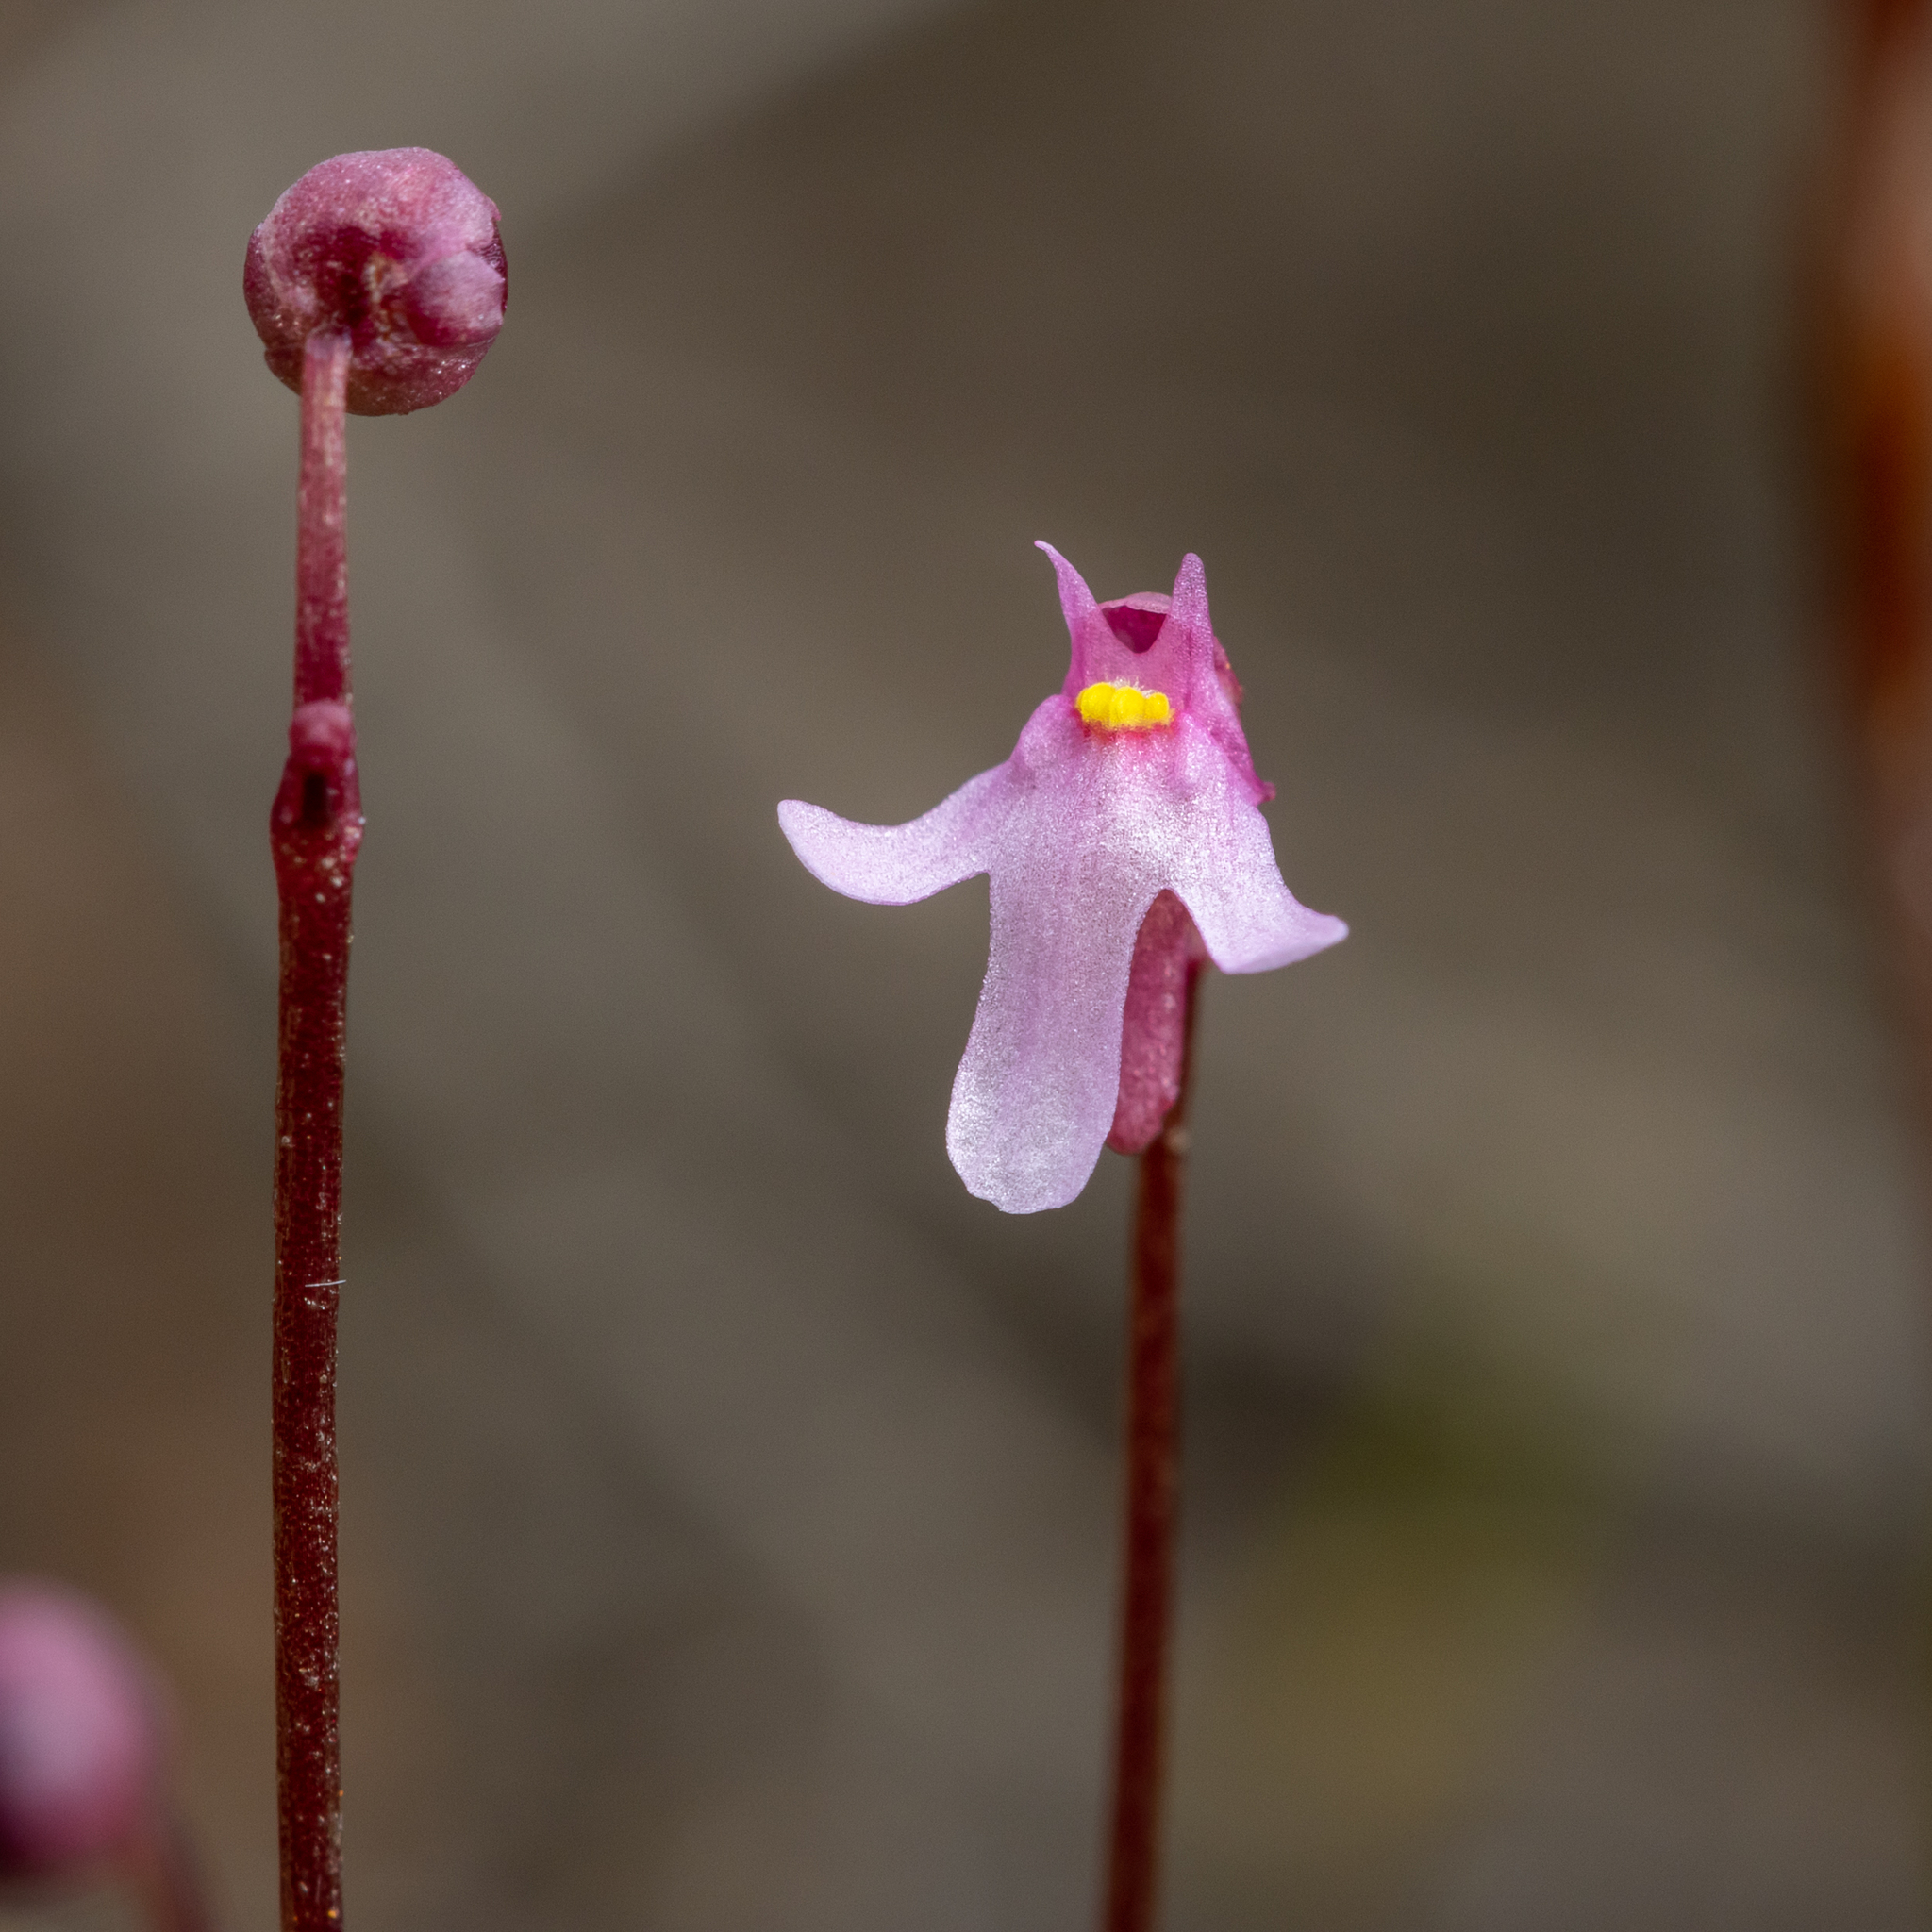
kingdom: Plantae
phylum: Tracheophyta
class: Magnoliopsida
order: Lamiales
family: Lentibulariaceae
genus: Utricularia
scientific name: Utricularia tenella
